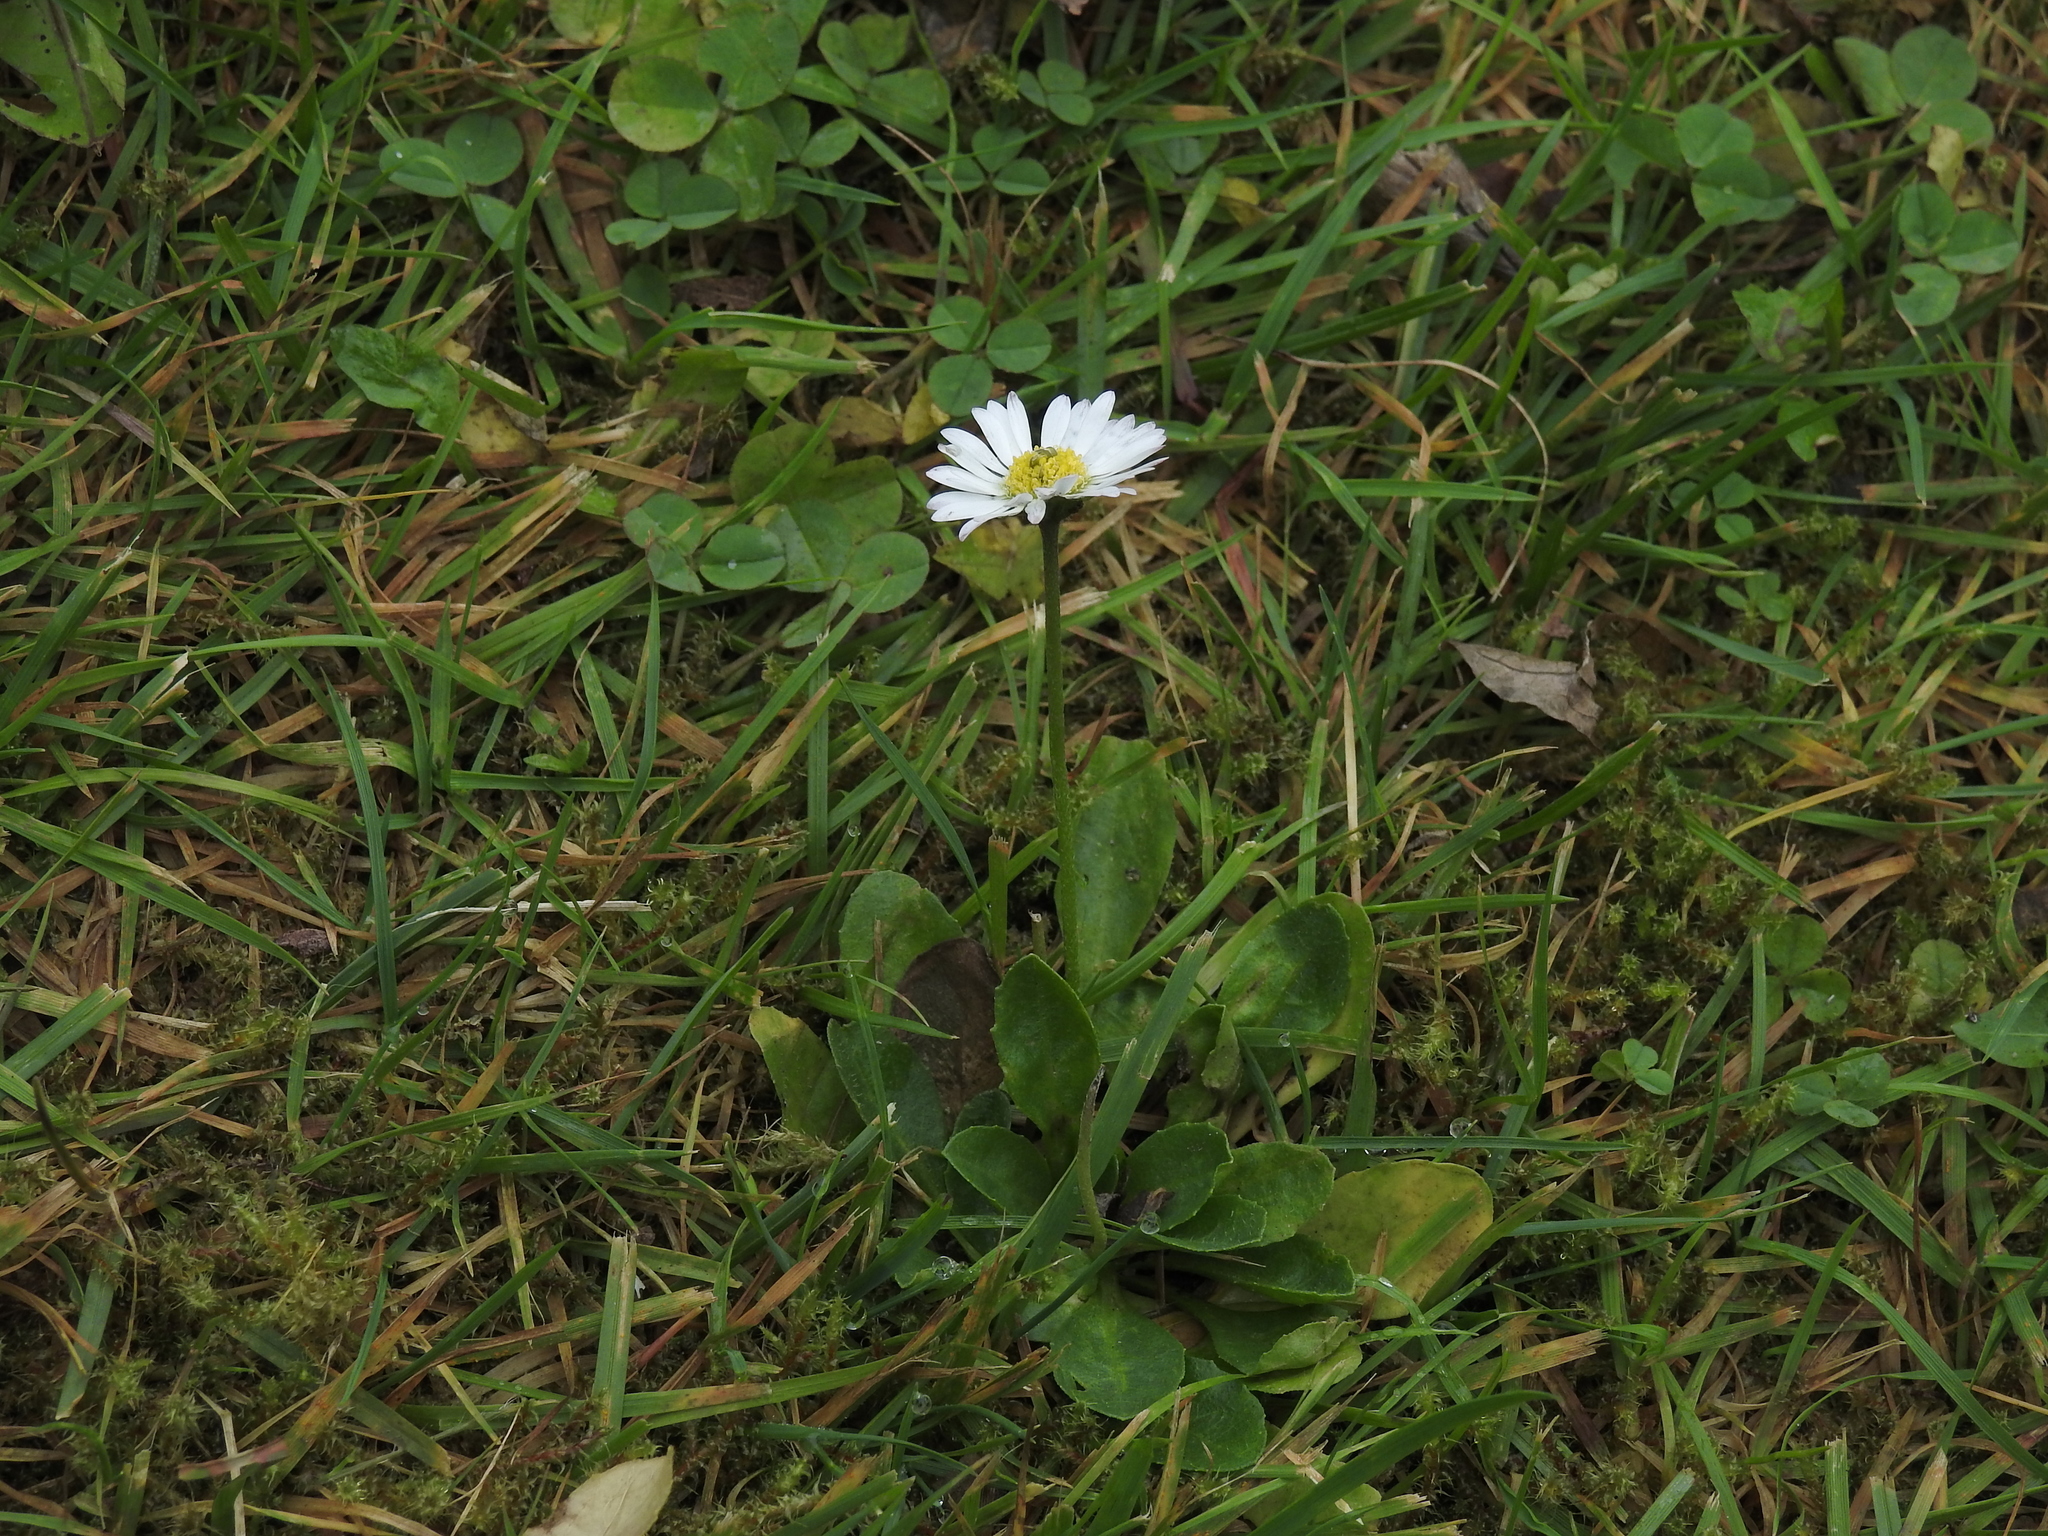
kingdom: Plantae
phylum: Tracheophyta
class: Magnoliopsida
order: Asterales
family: Asteraceae
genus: Bellis
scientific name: Bellis perennis
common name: Lawndaisy
